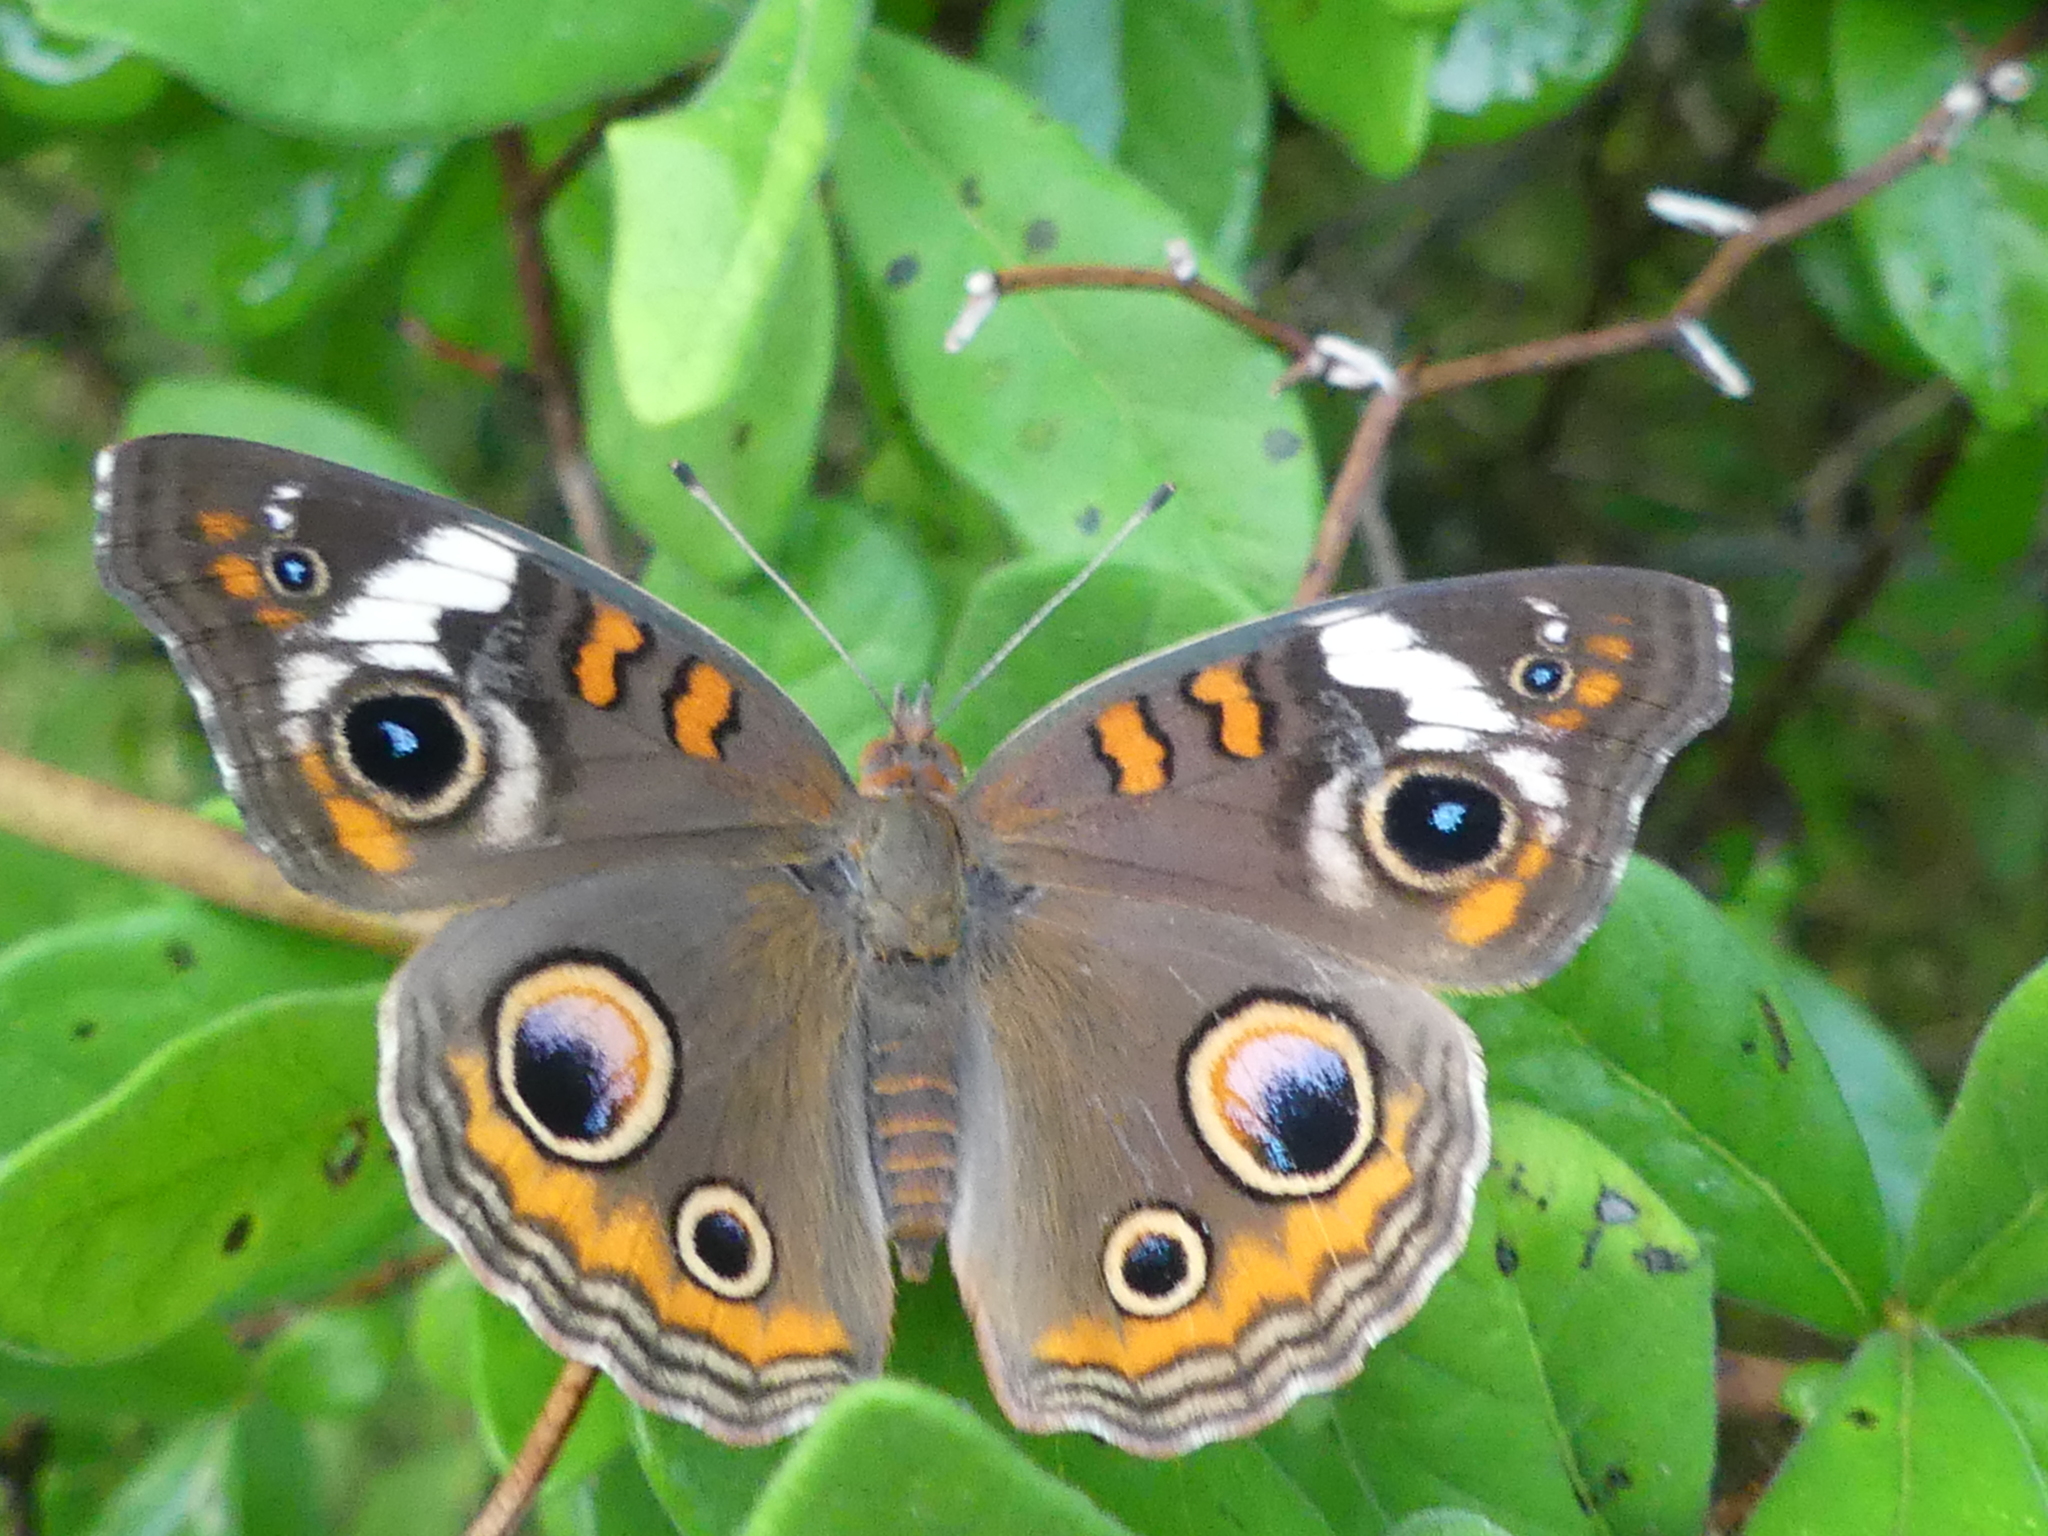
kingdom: Animalia
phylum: Arthropoda
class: Insecta
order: Lepidoptera
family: Nymphalidae
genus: Junonia
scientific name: Junonia coenia
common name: Common buckeye
